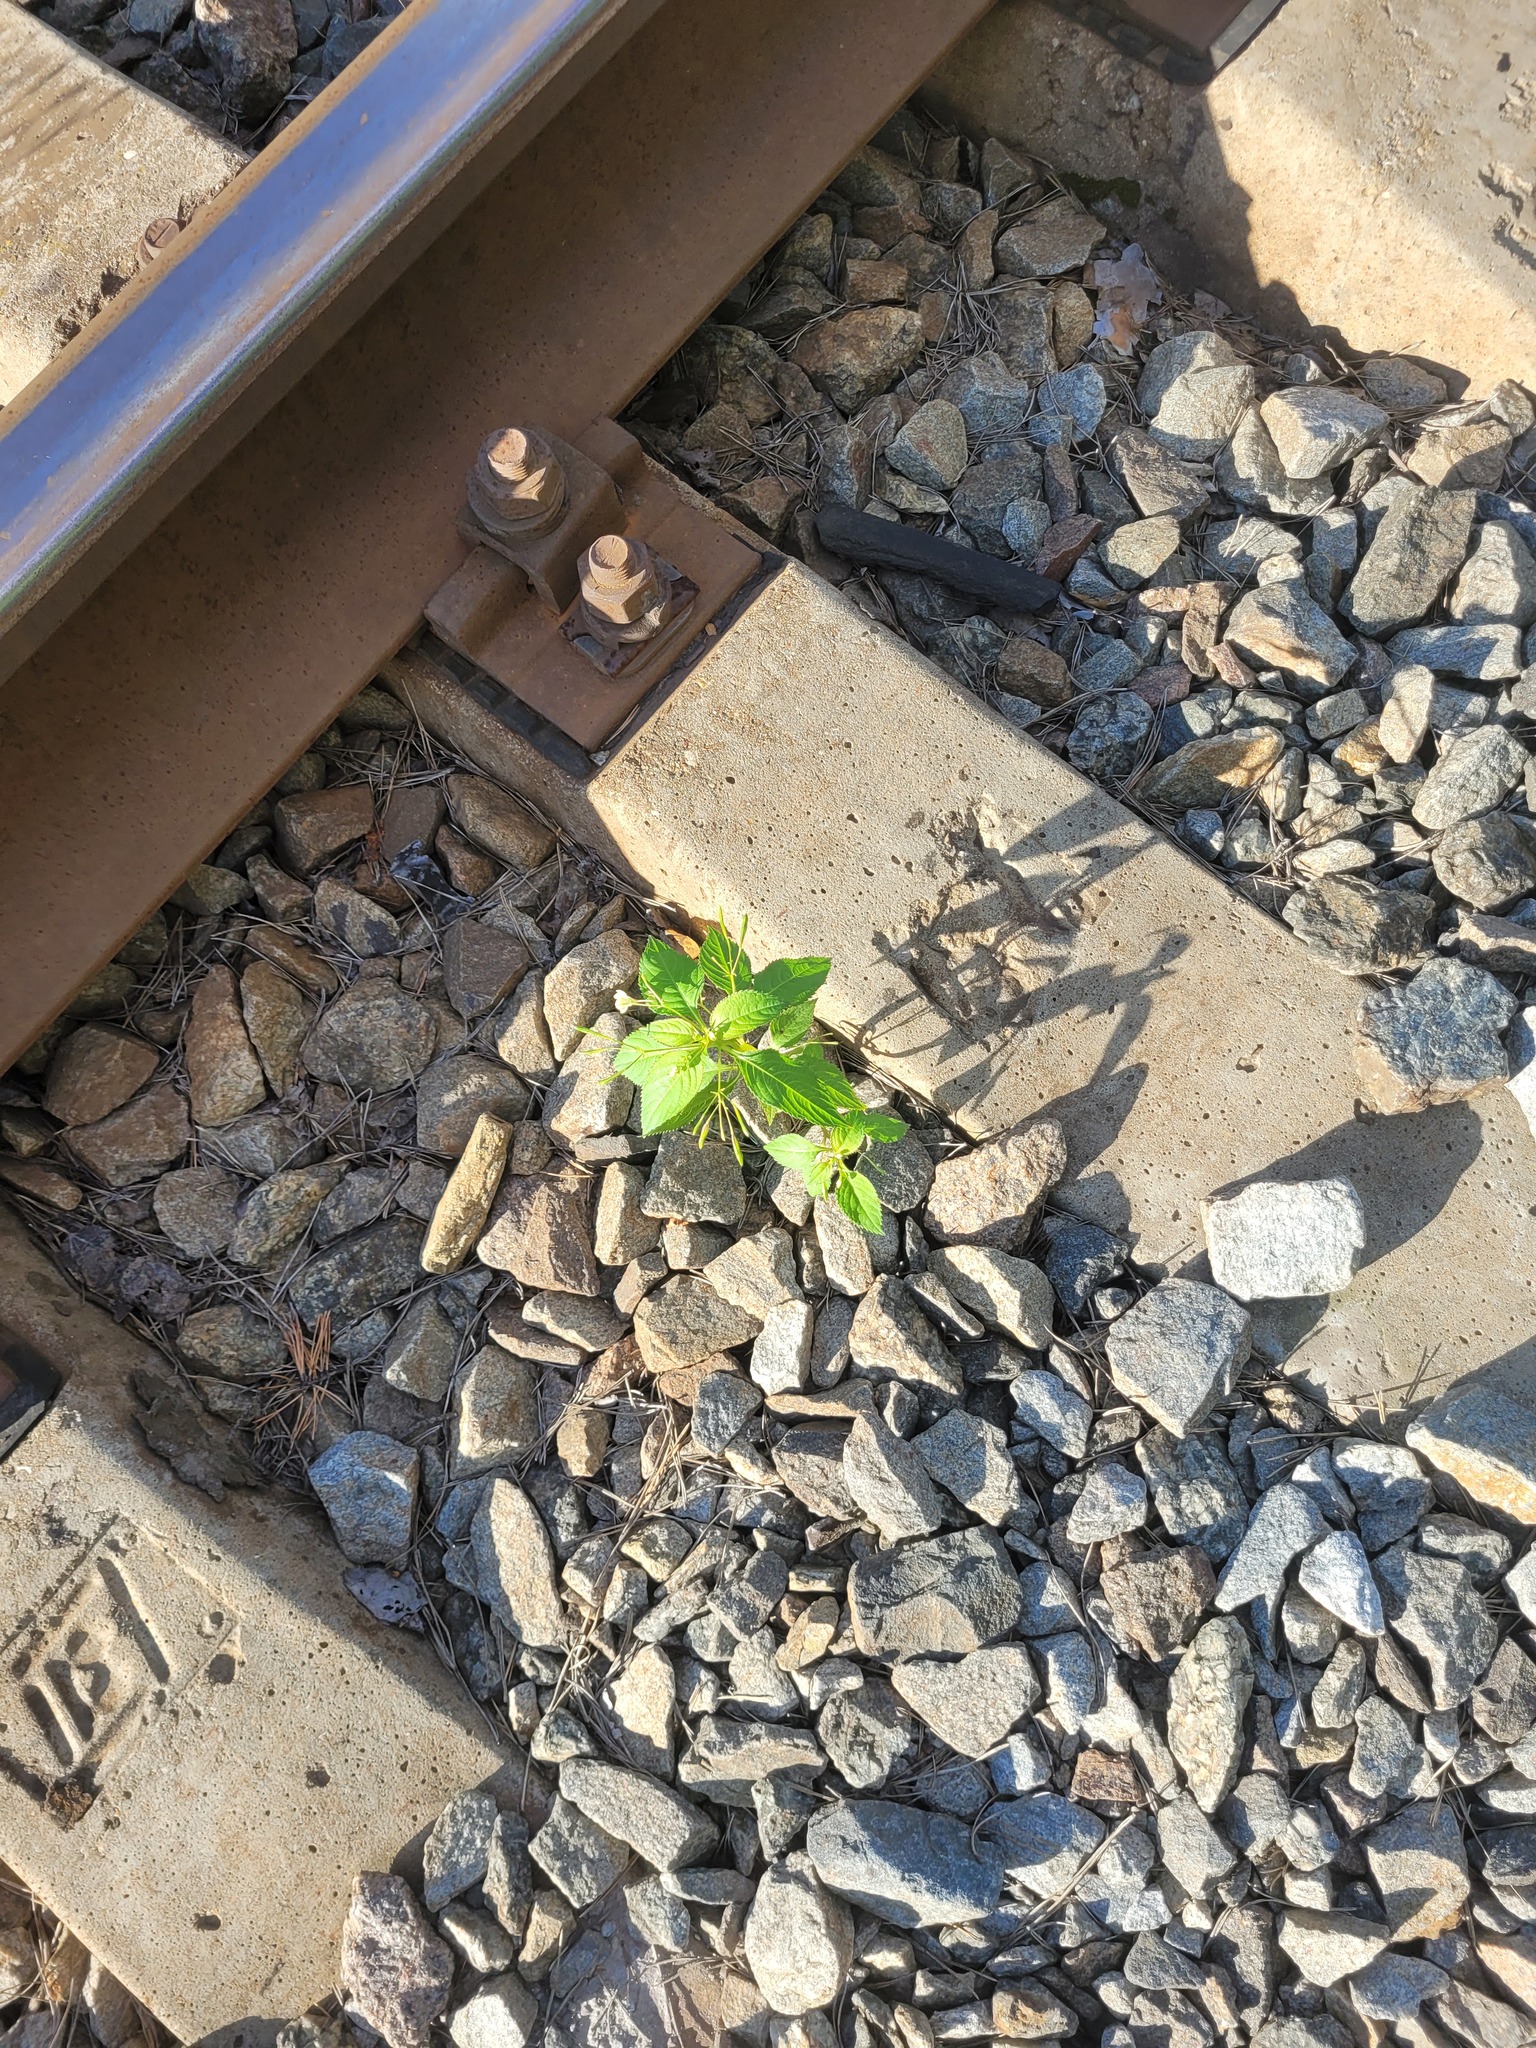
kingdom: Plantae
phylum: Tracheophyta
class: Magnoliopsida
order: Ericales
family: Balsaminaceae
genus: Impatiens
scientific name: Impatiens parviflora
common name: Small balsam
